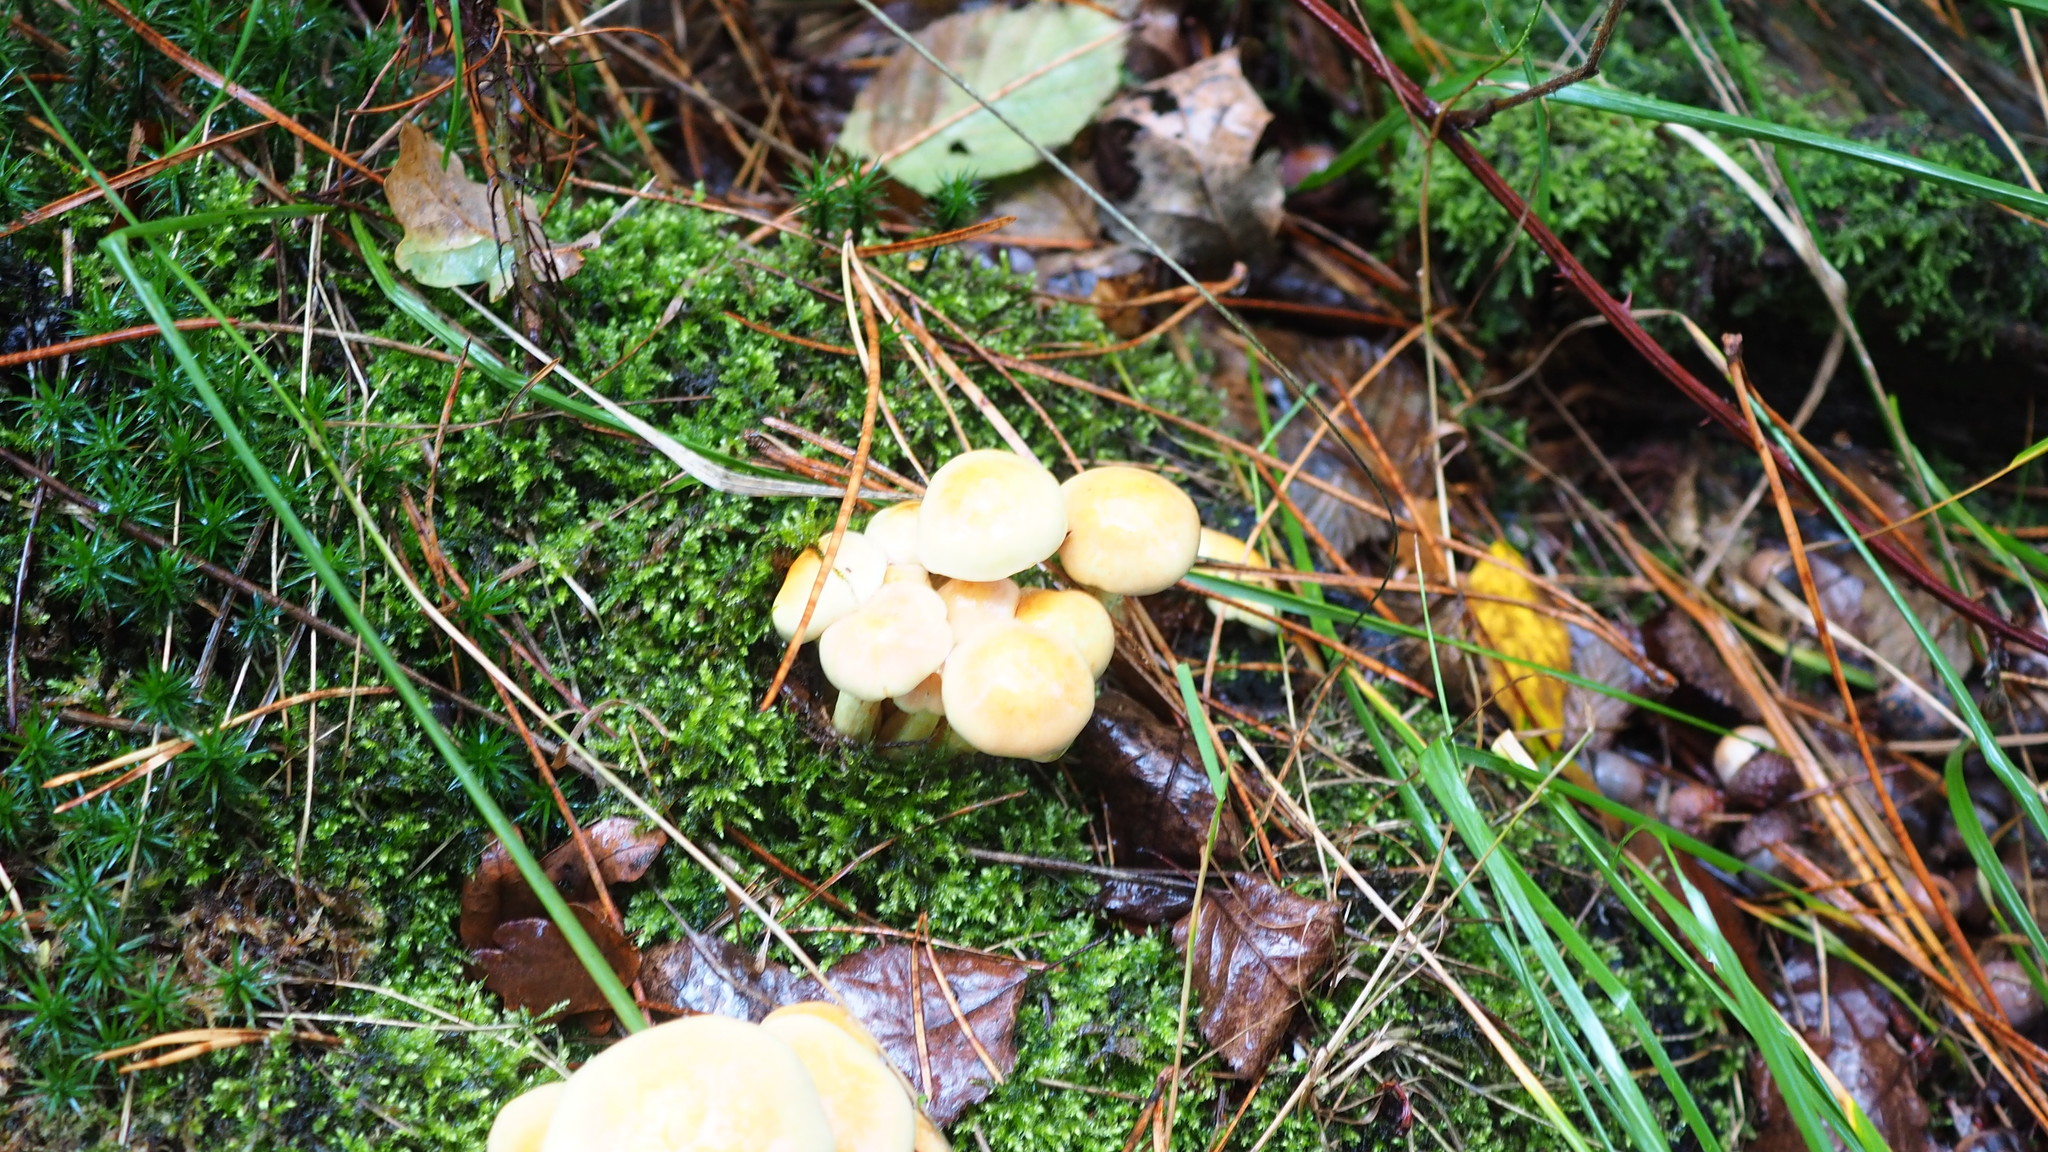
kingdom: Fungi
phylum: Basidiomycota
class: Agaricomycetes
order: Agaricales
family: Strophariaceae
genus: Hypholoma
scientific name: Hypholoma fasciculare
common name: Sulphur tuft
